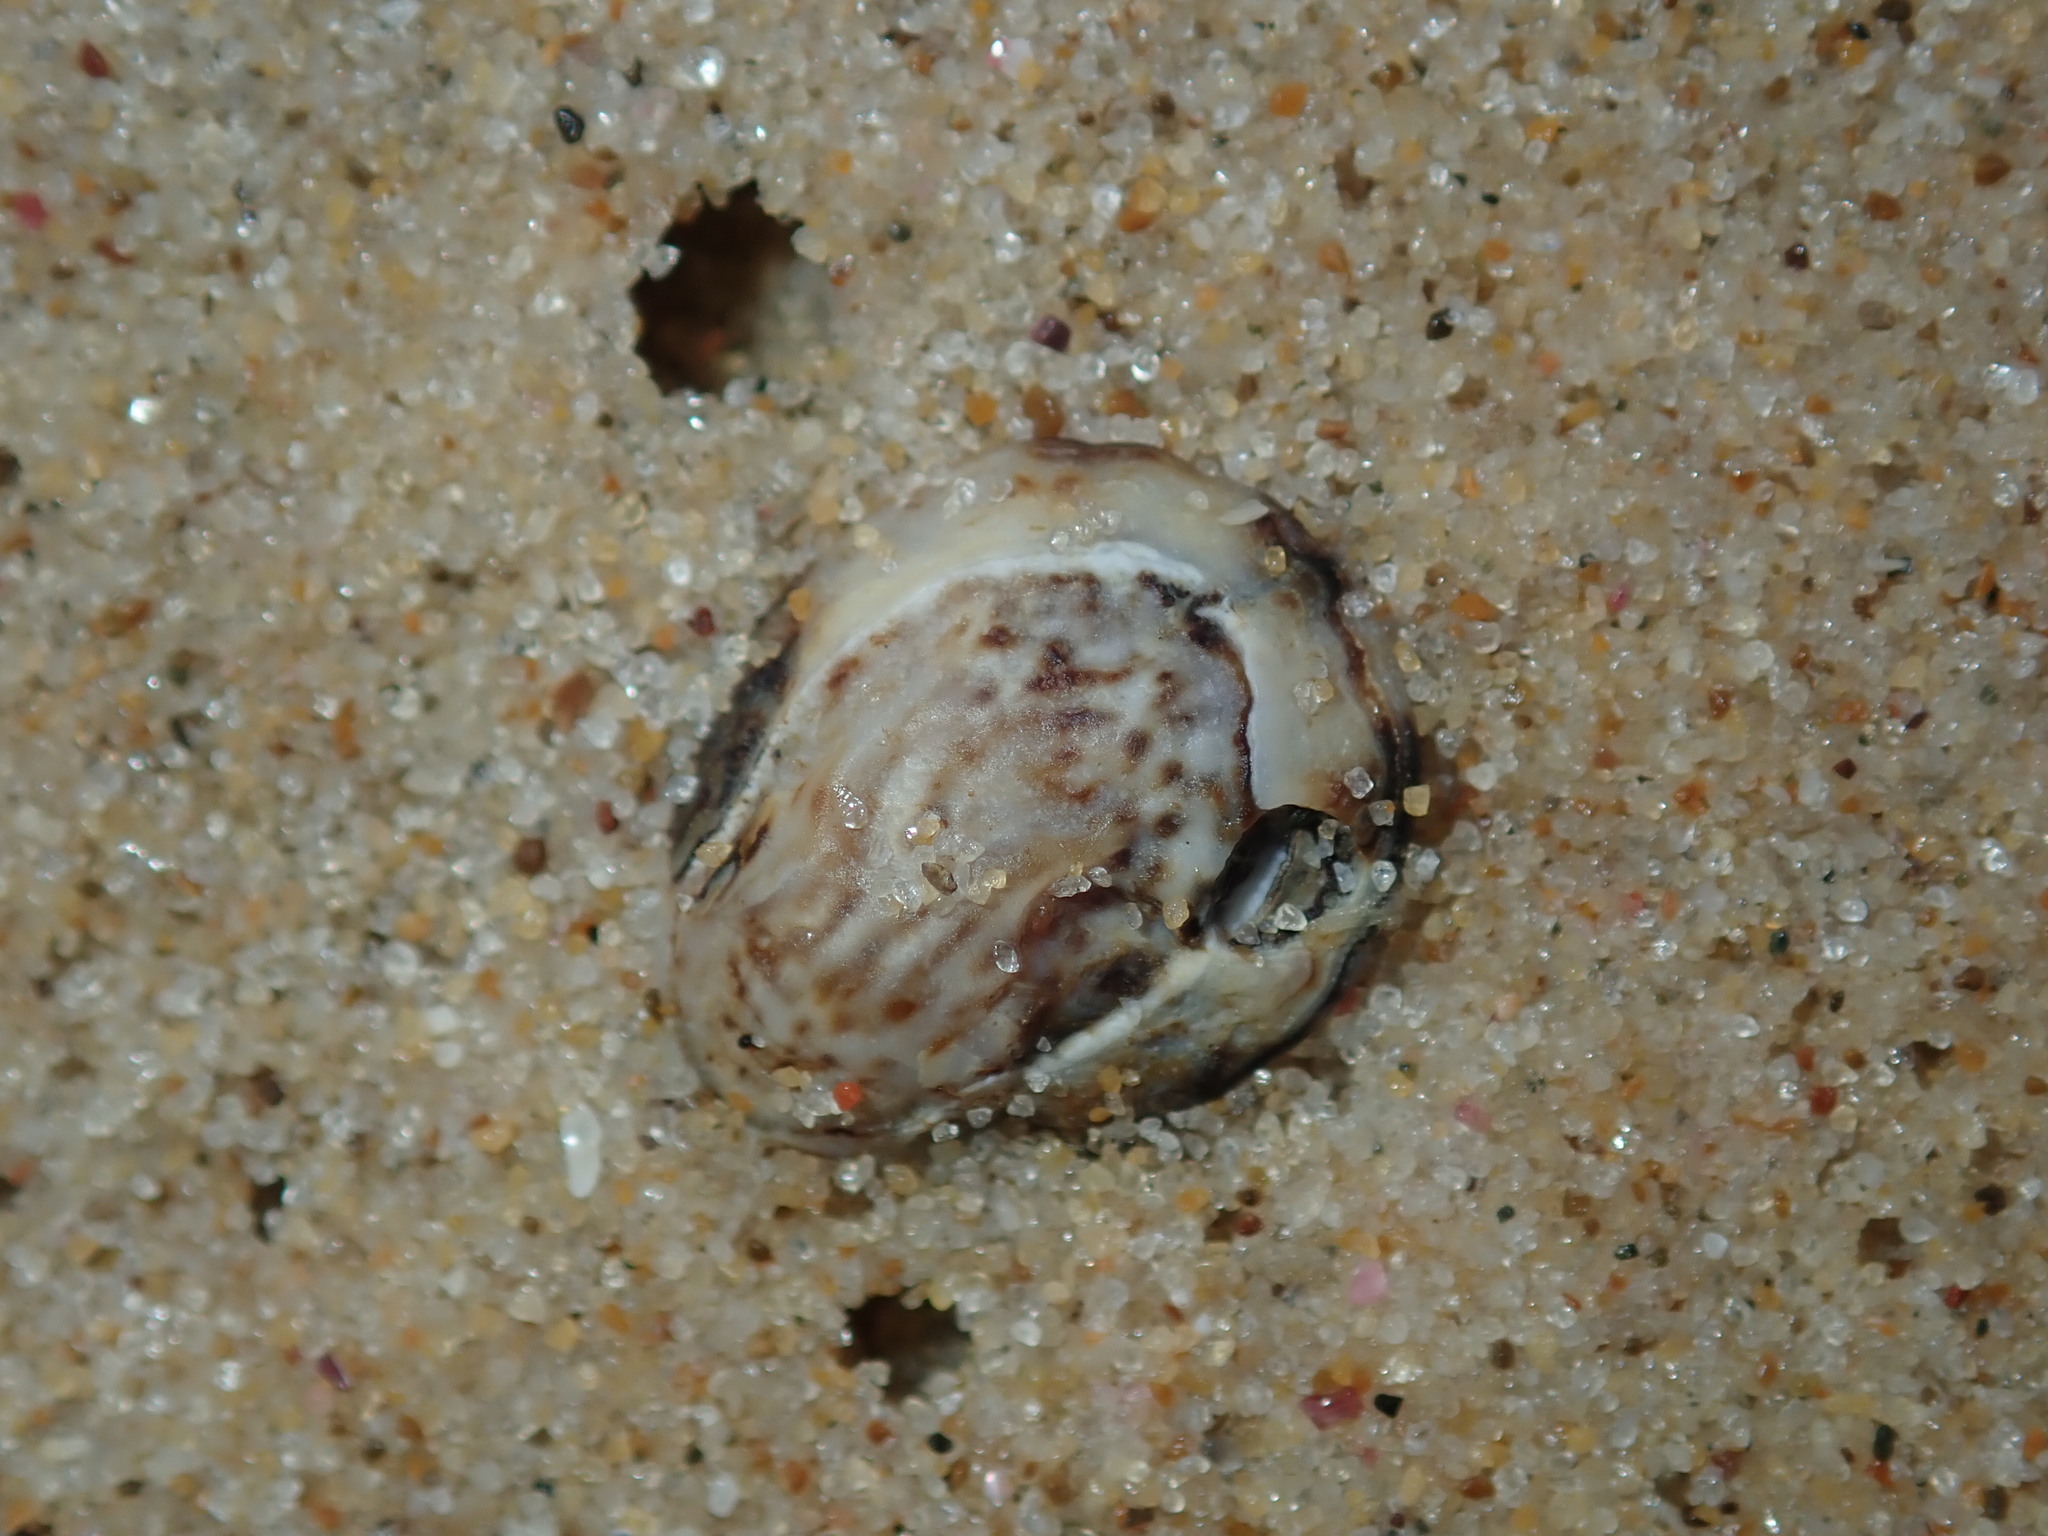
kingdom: Animalia
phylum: Mollusca
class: Gastropoda
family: Lottiidae
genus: Patelloida
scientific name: Patelloida latistrigata
